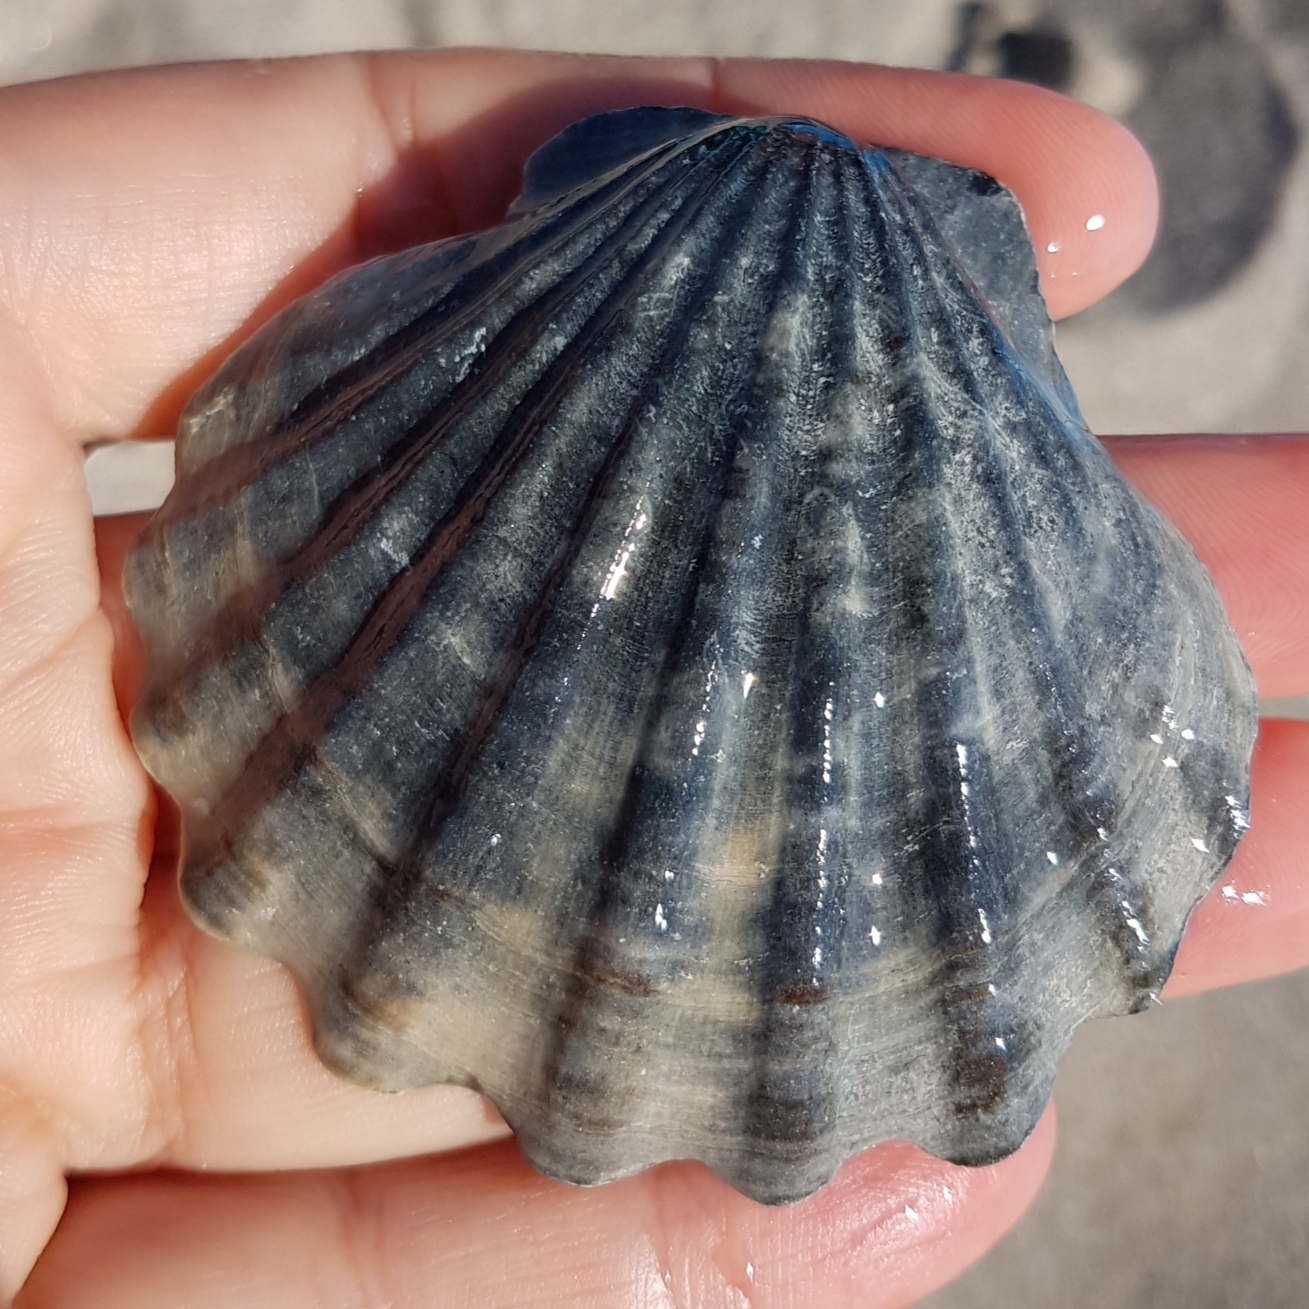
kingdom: Animalia
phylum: Mollusca
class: Bivalvia
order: Pectinida
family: Pectinidae
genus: Flexopecten
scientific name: Flexopecten glaber
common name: Smooth scallop
